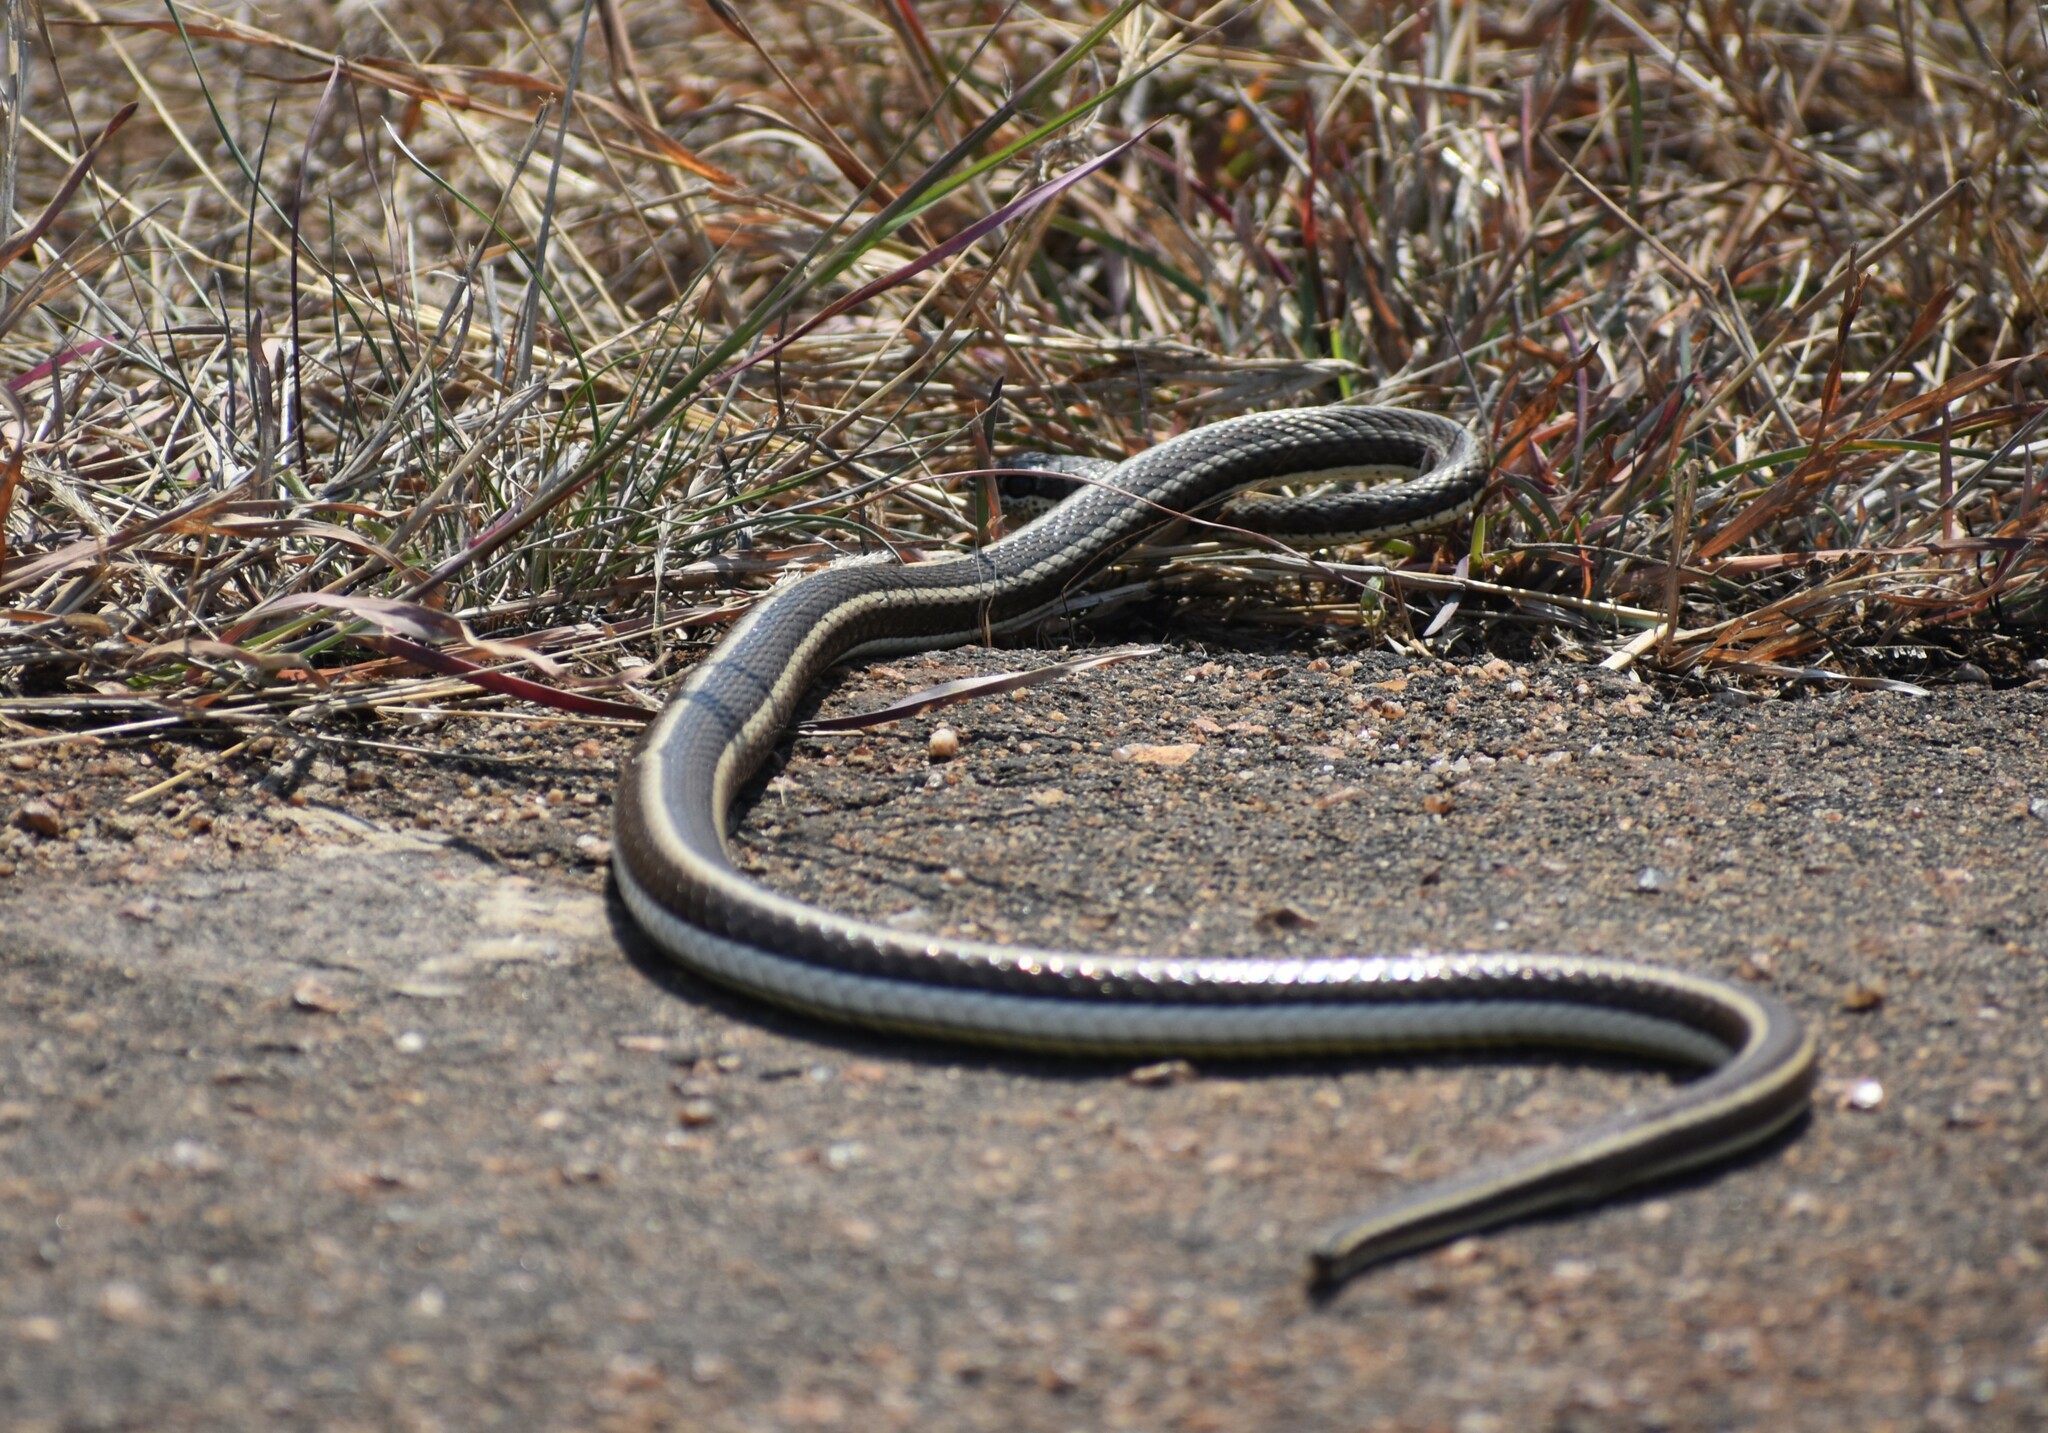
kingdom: Animalia
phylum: Chordata
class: Squamata
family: Psammophiidae
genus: Psammophis
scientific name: Psammophis subtaeniatus
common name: Stripe-bellied sand snake
